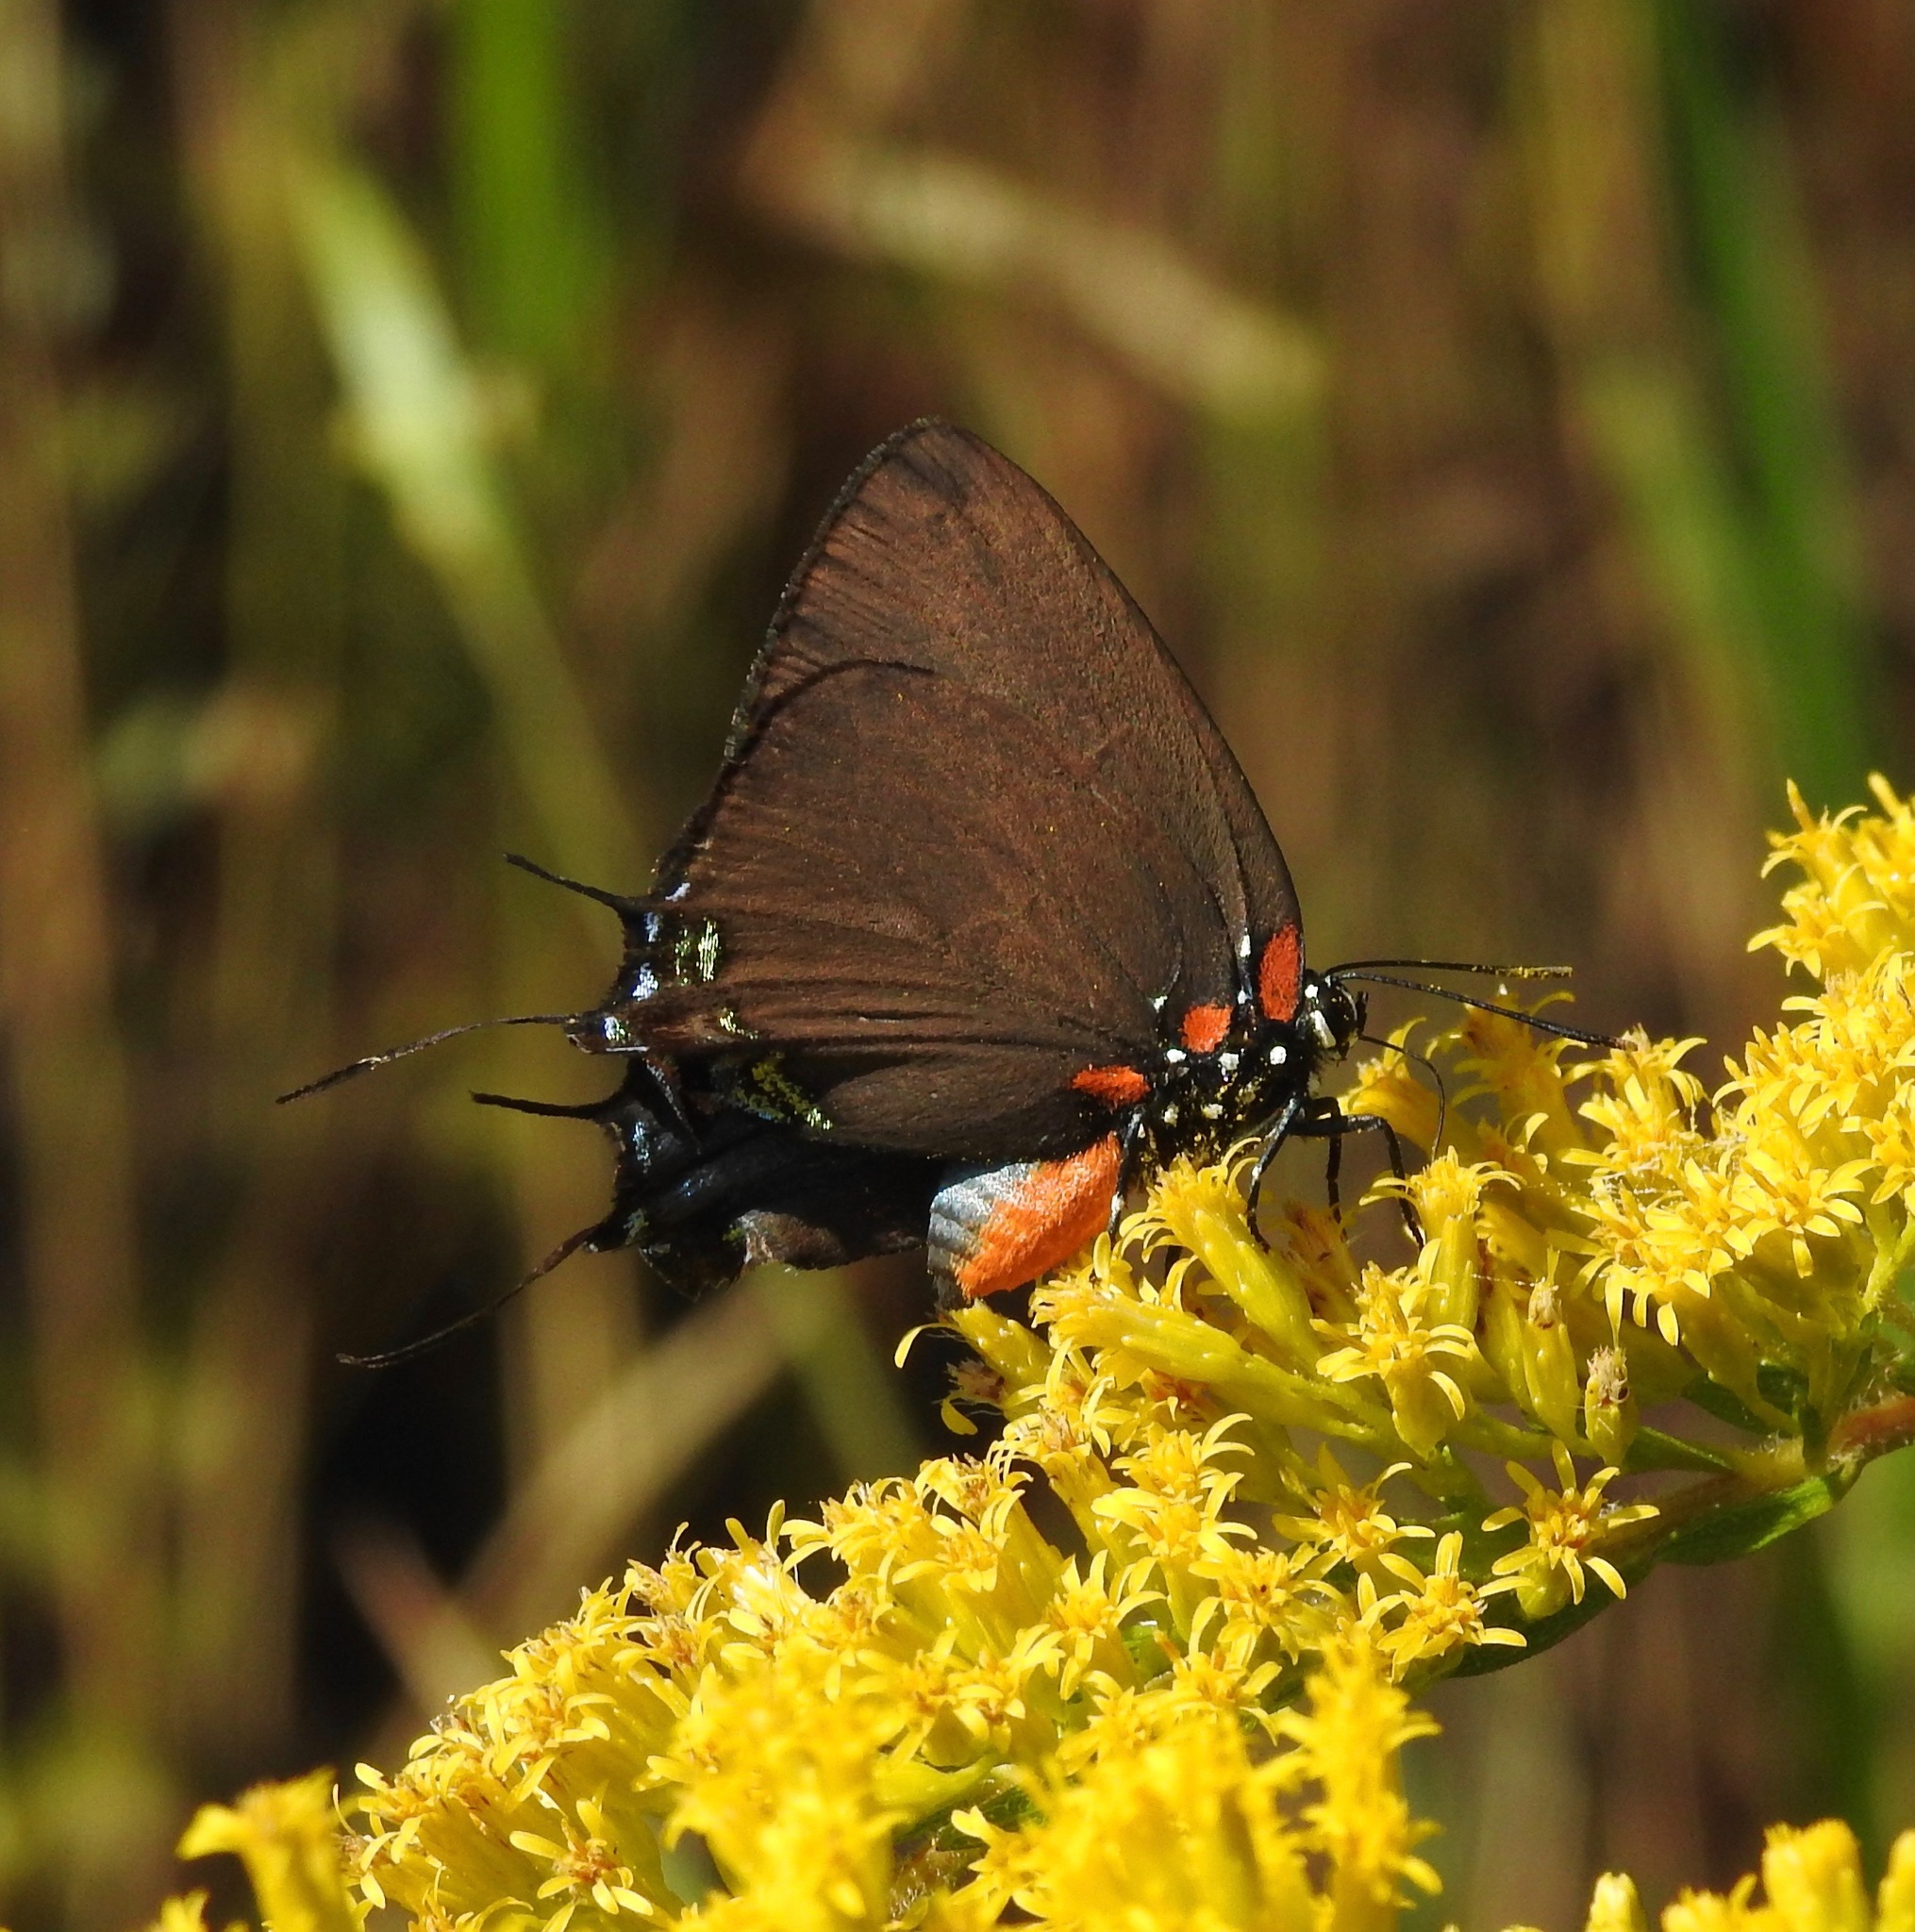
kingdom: Animalia
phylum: Arthropoda
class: Insecta
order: Lepidoptera
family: Lycaenidae
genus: Atlides
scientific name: Atlides halesus
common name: Great purple hairstreak
